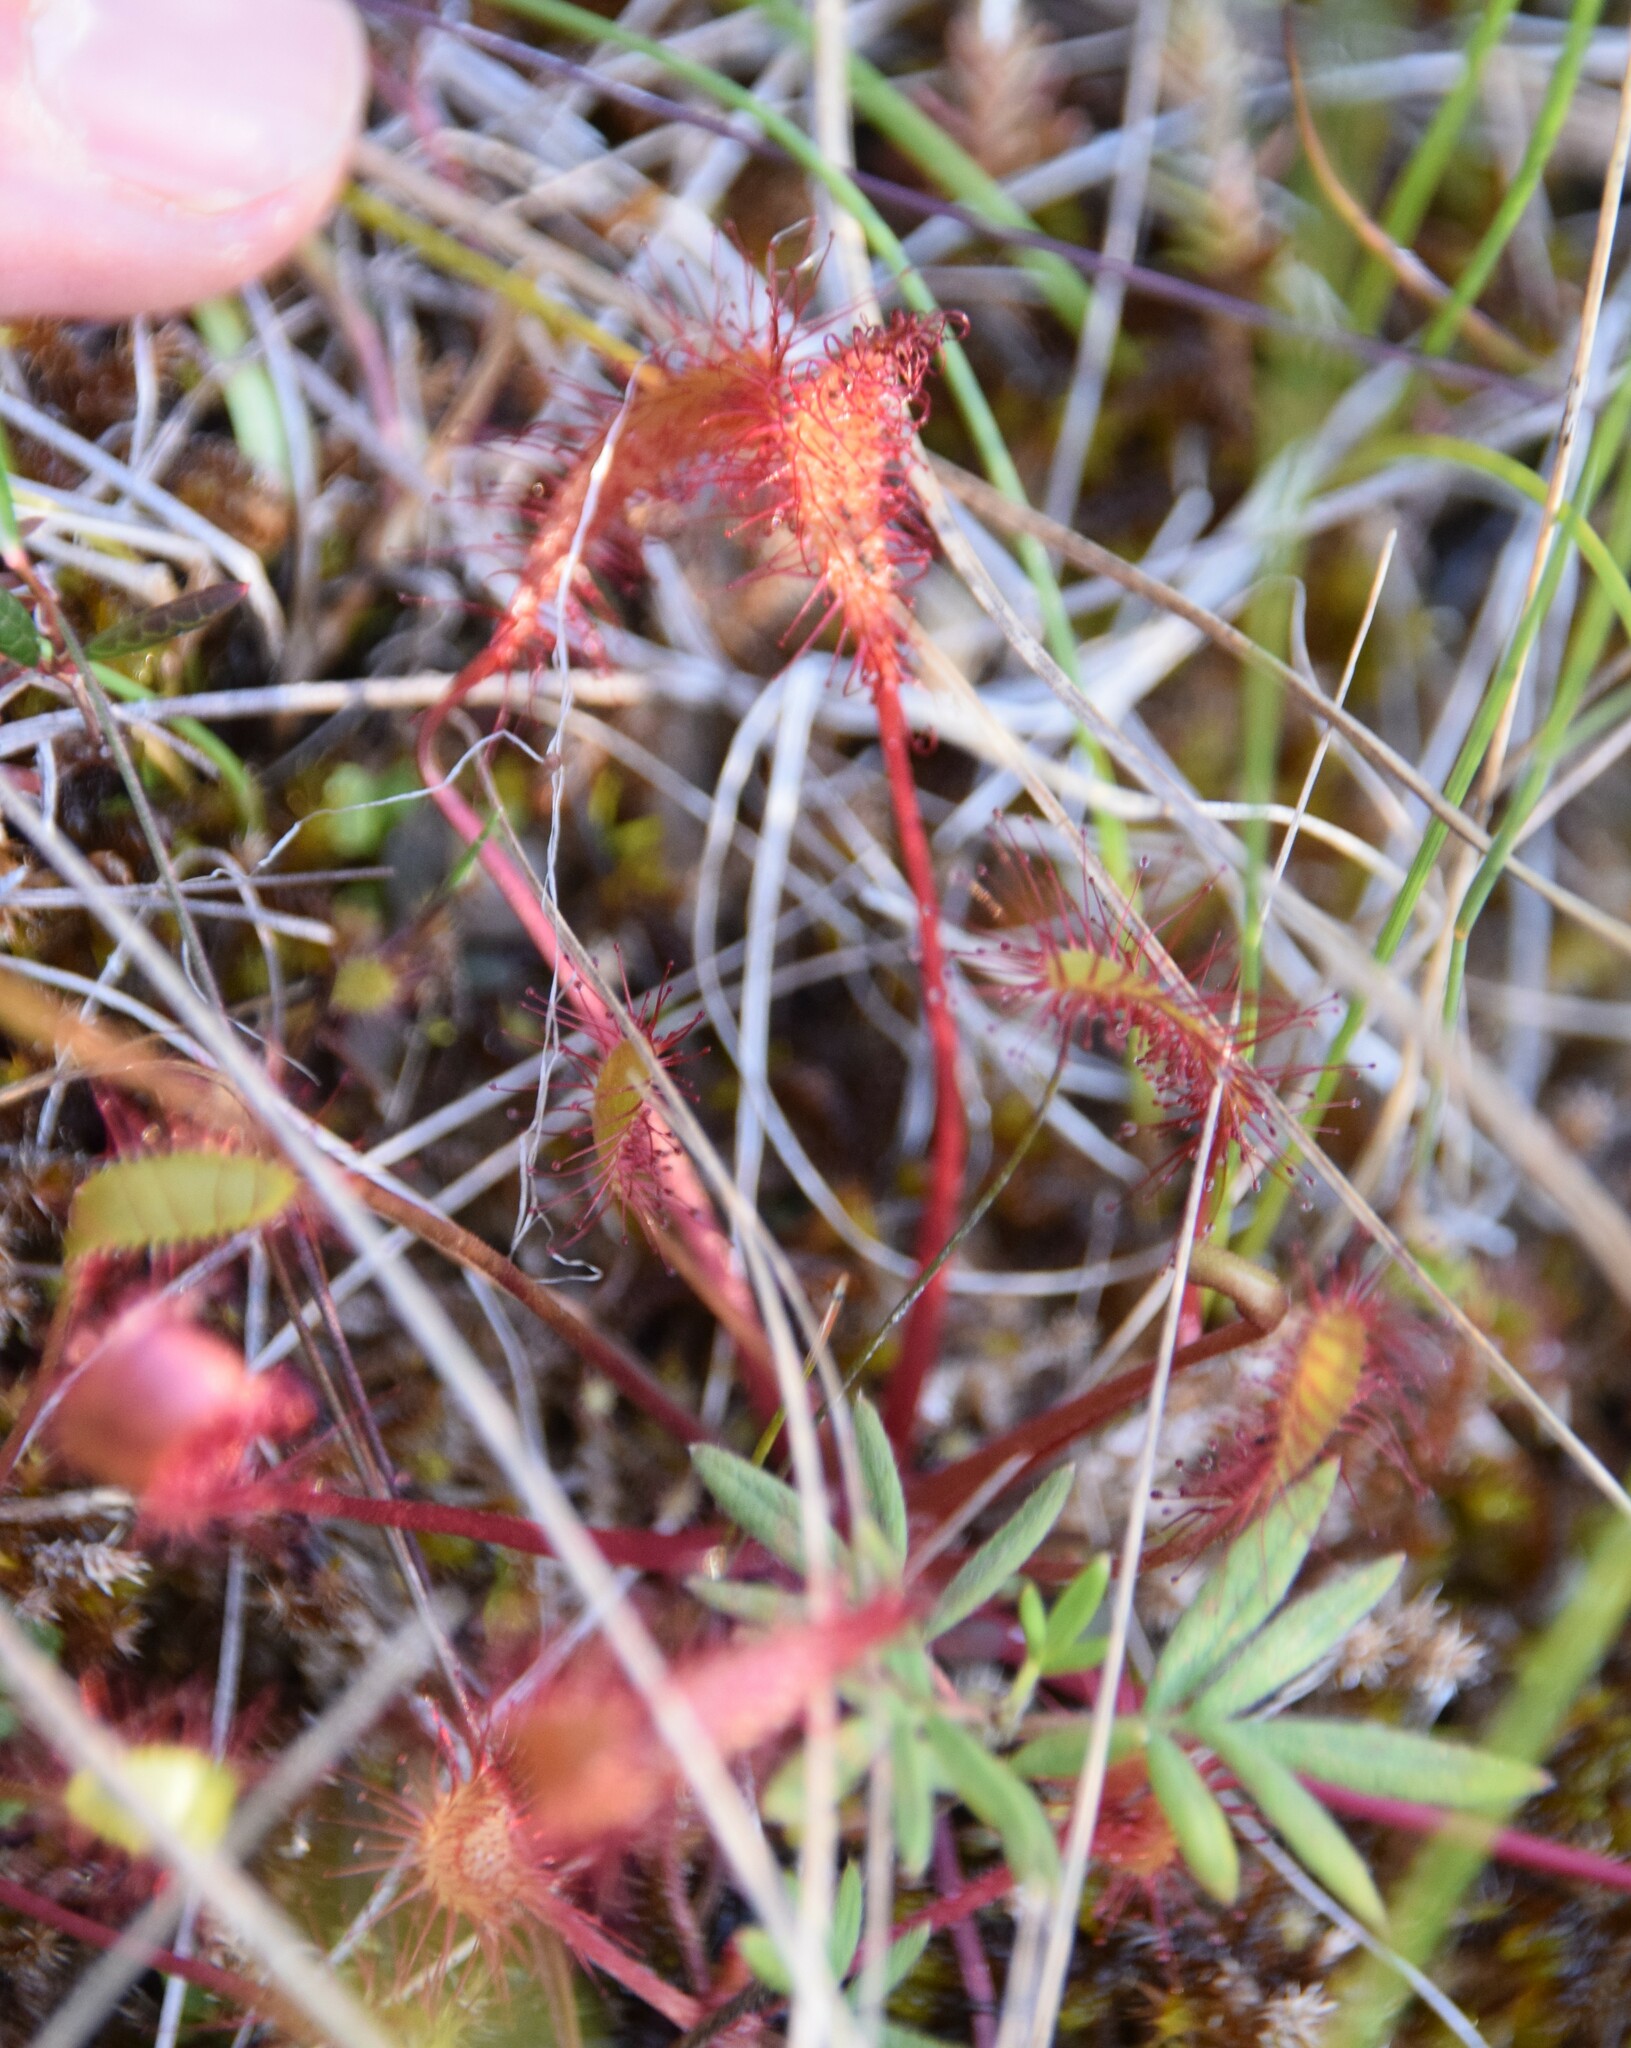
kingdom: Plantae
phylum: Tracheophyta
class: Magnoliopsida
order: Caryophyllales
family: Droseraceae
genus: Drosera
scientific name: Drosera anglica
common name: Great sundew
